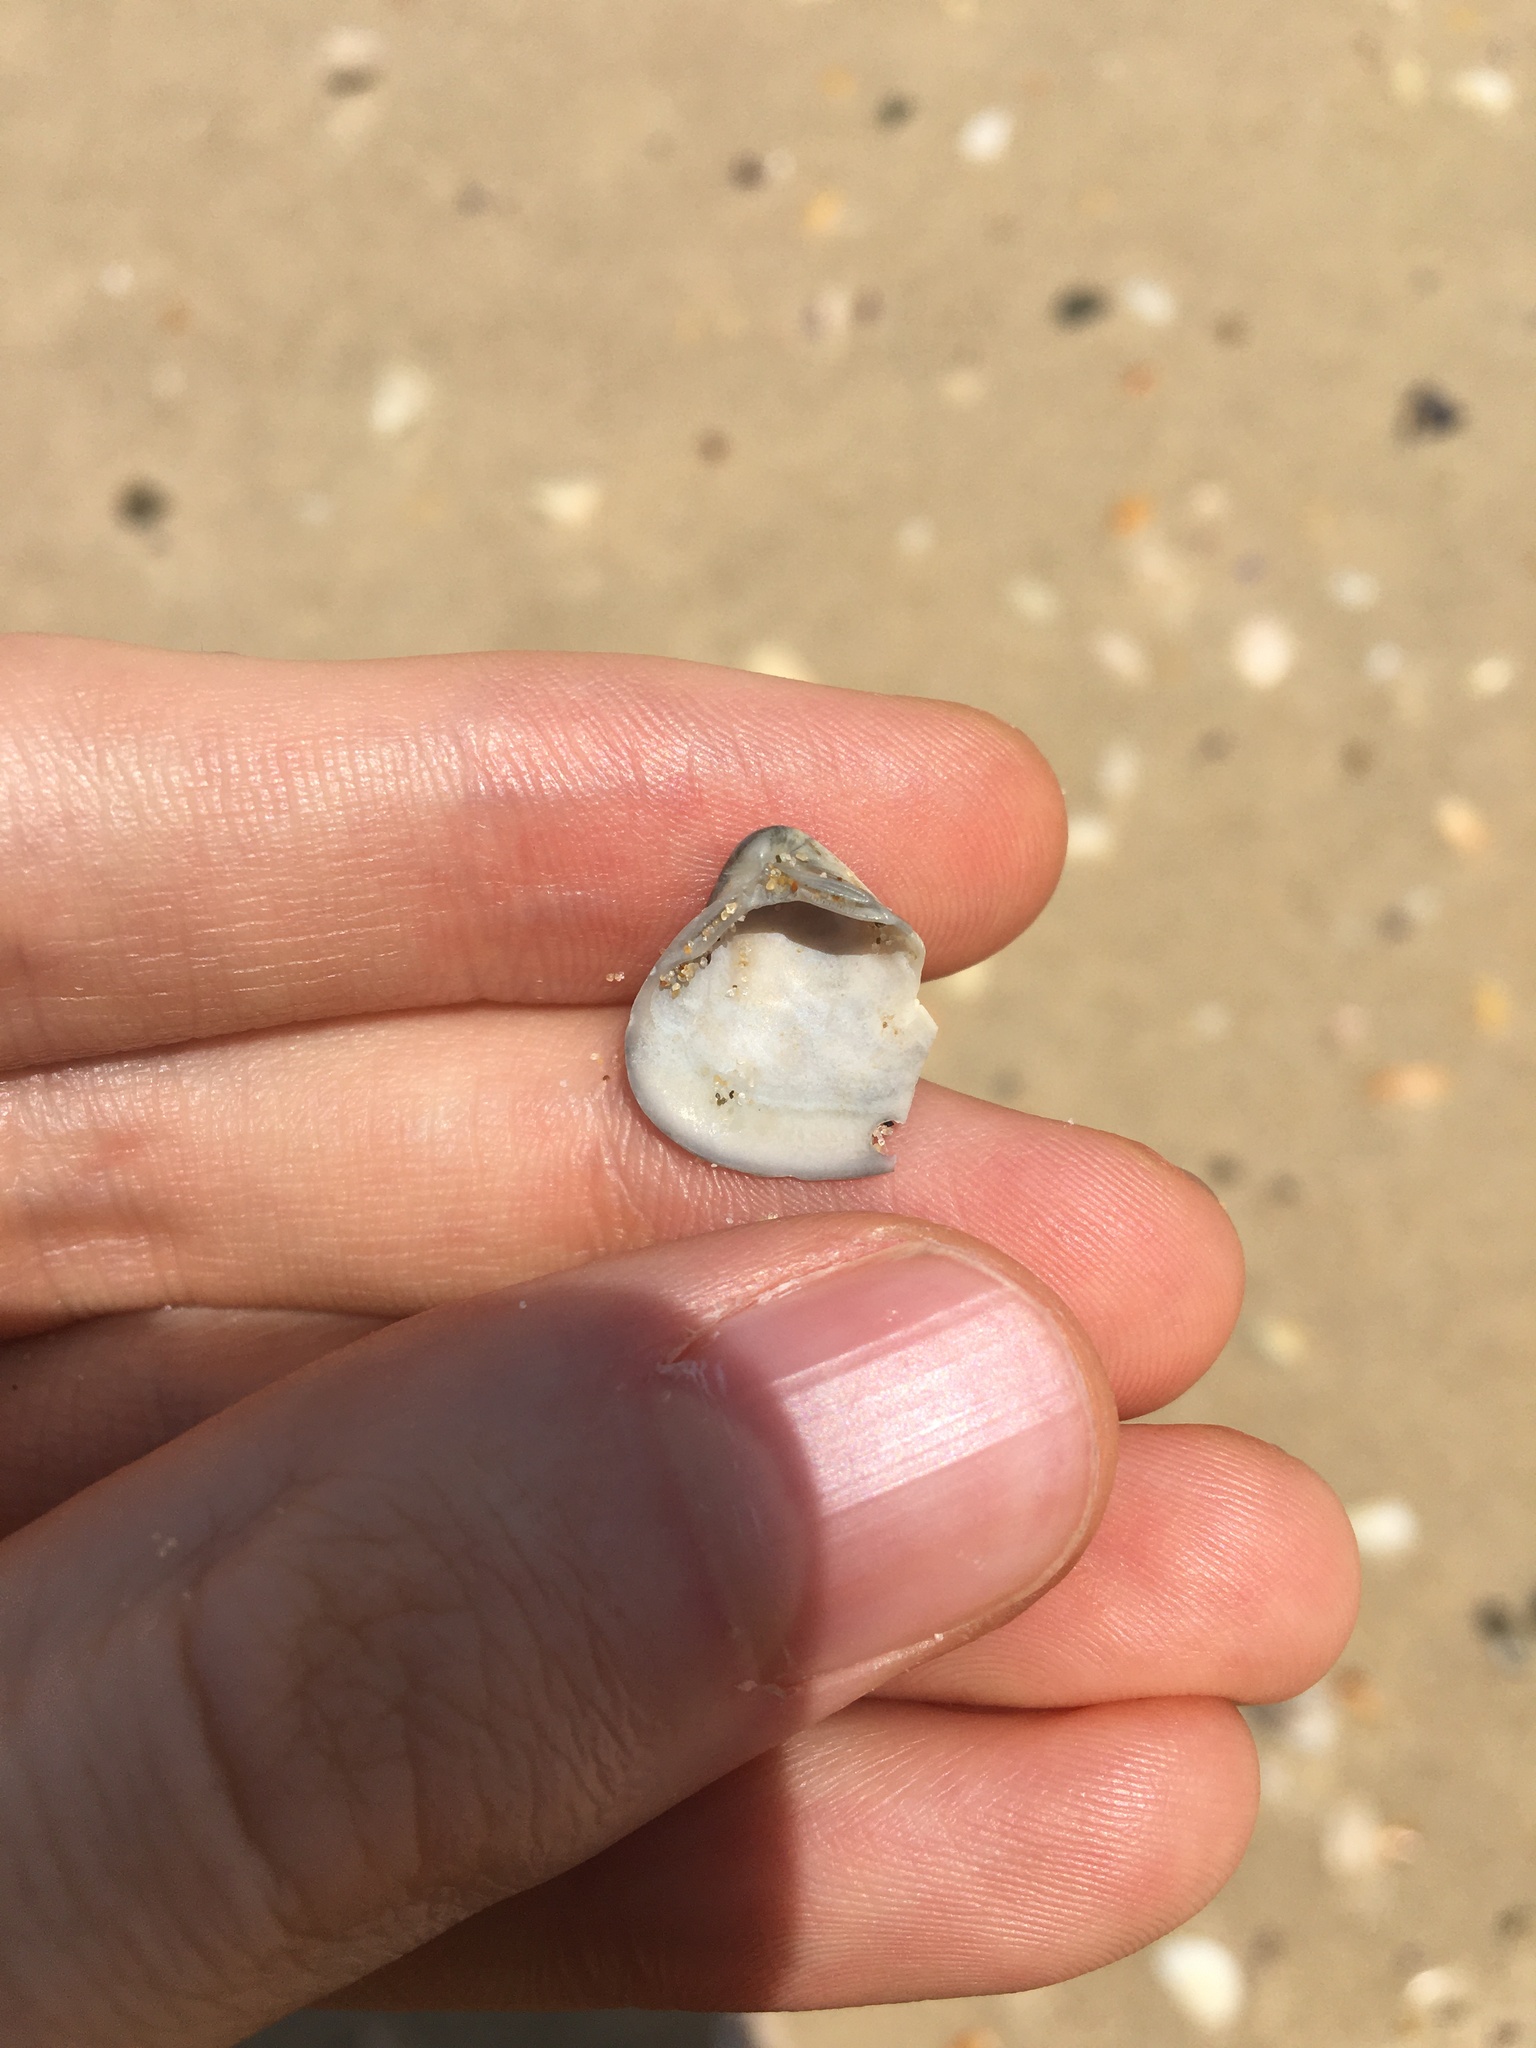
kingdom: Animalia
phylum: Mollusca
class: Bivalvia
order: Venerida
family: Mactridae
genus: Spisula
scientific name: Spisula trigonella
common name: Trigonal mactra
